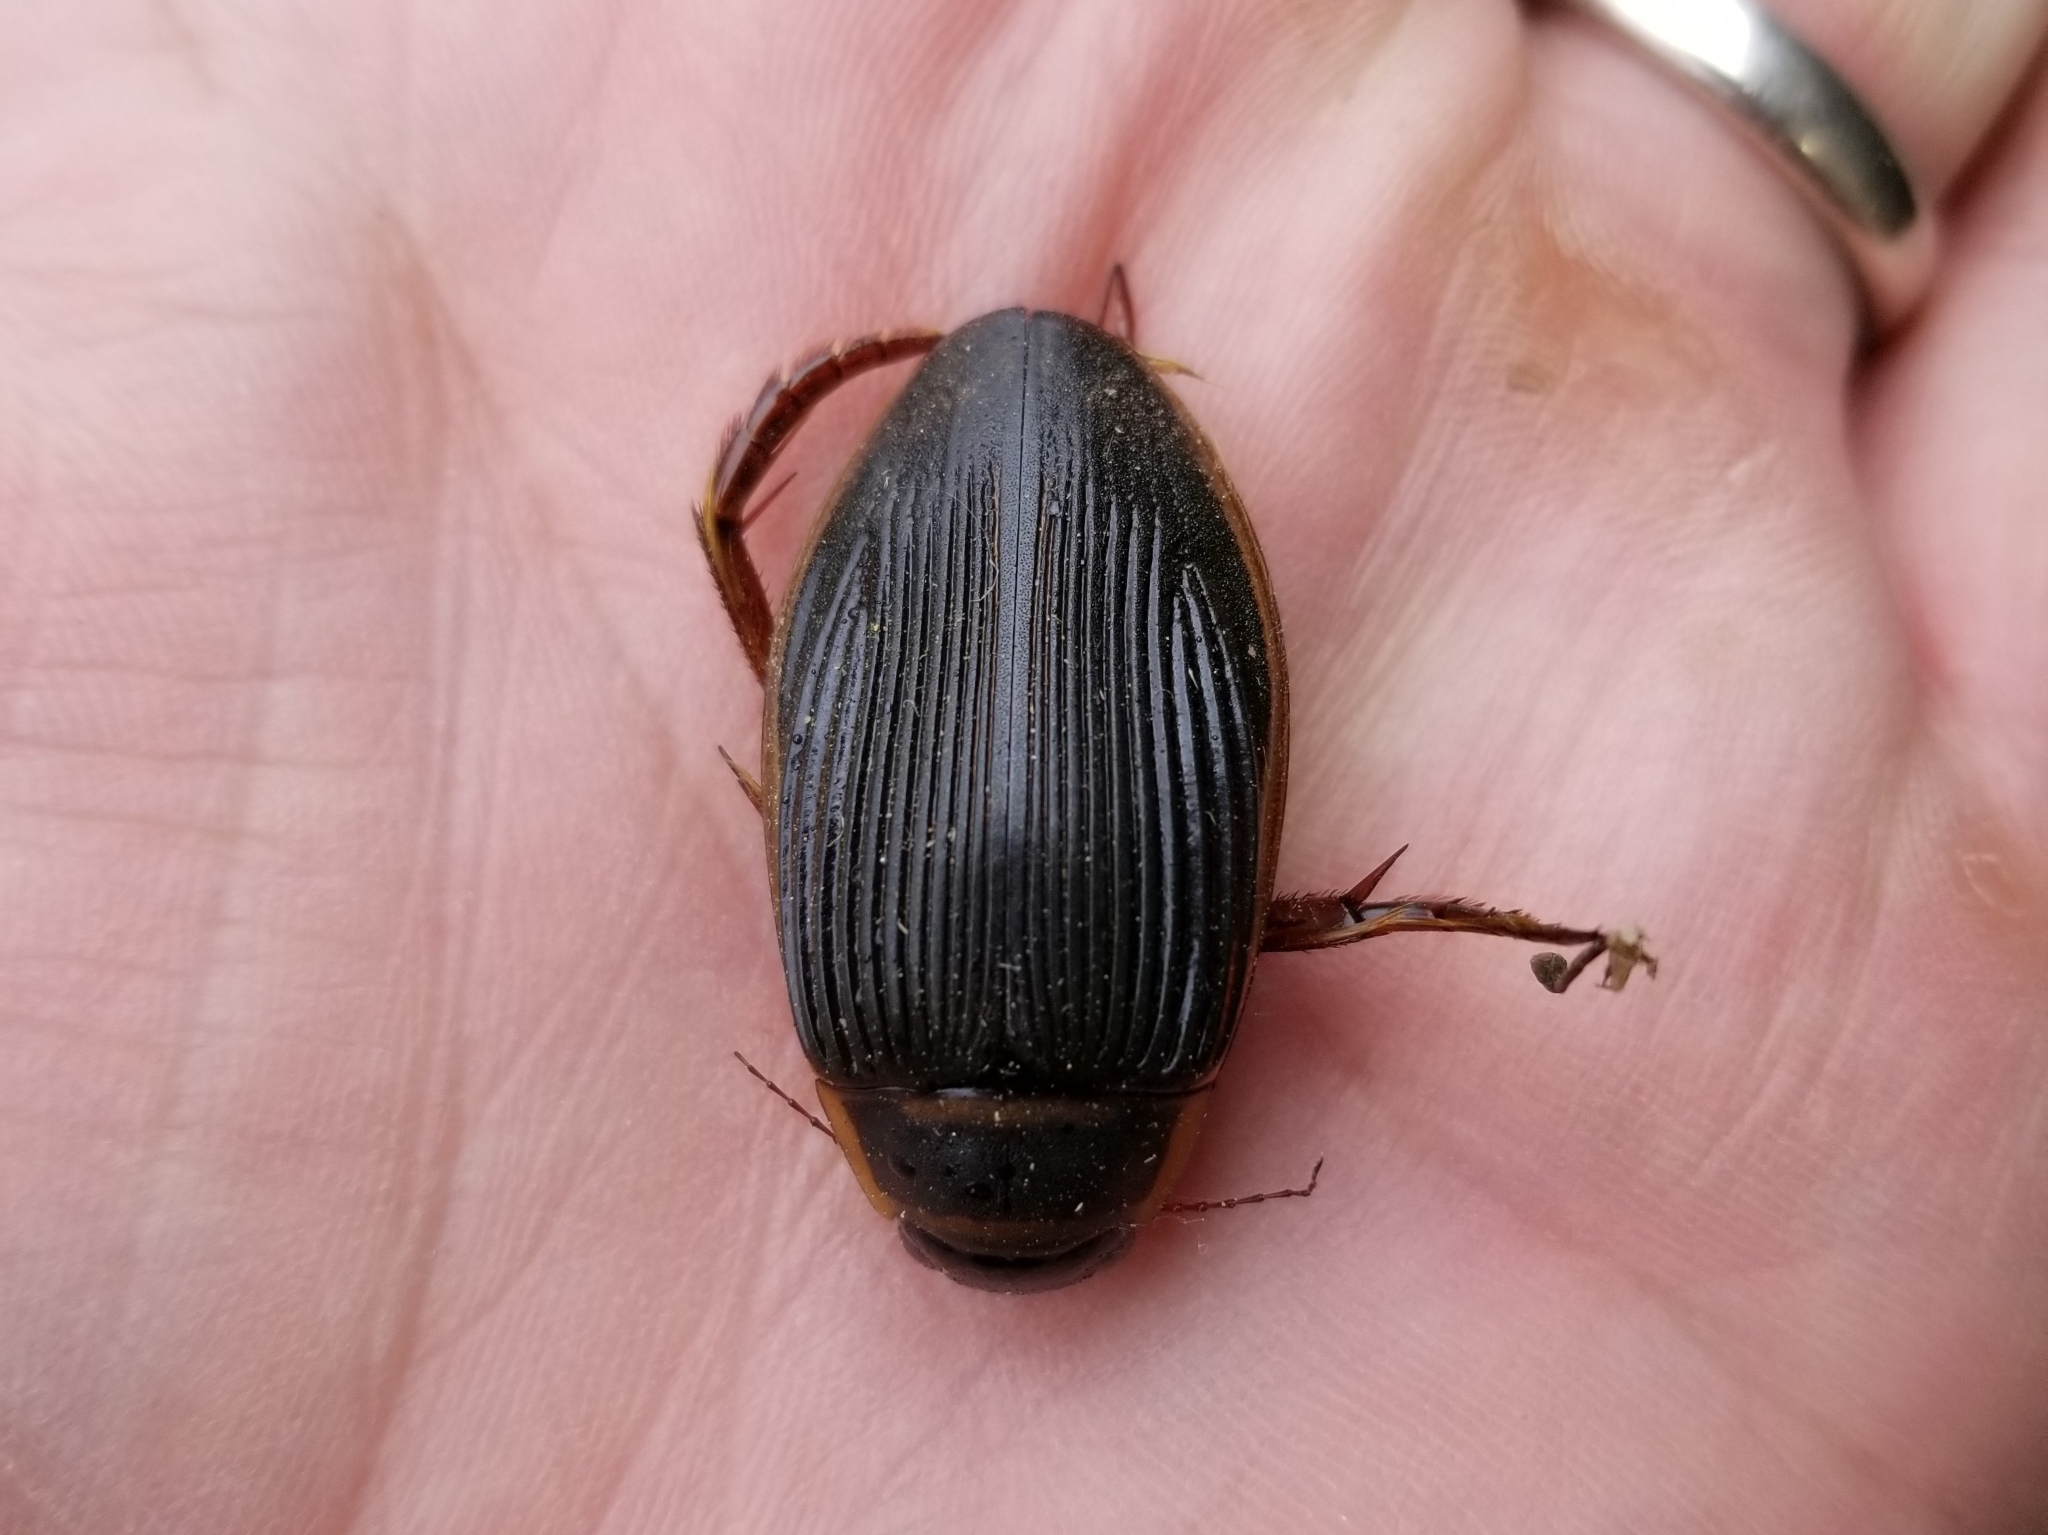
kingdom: Animalia
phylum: Arthropoda
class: Insecta
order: Coleoptera
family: Dytiscidae
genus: Dytiscus
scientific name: Dytiscus
